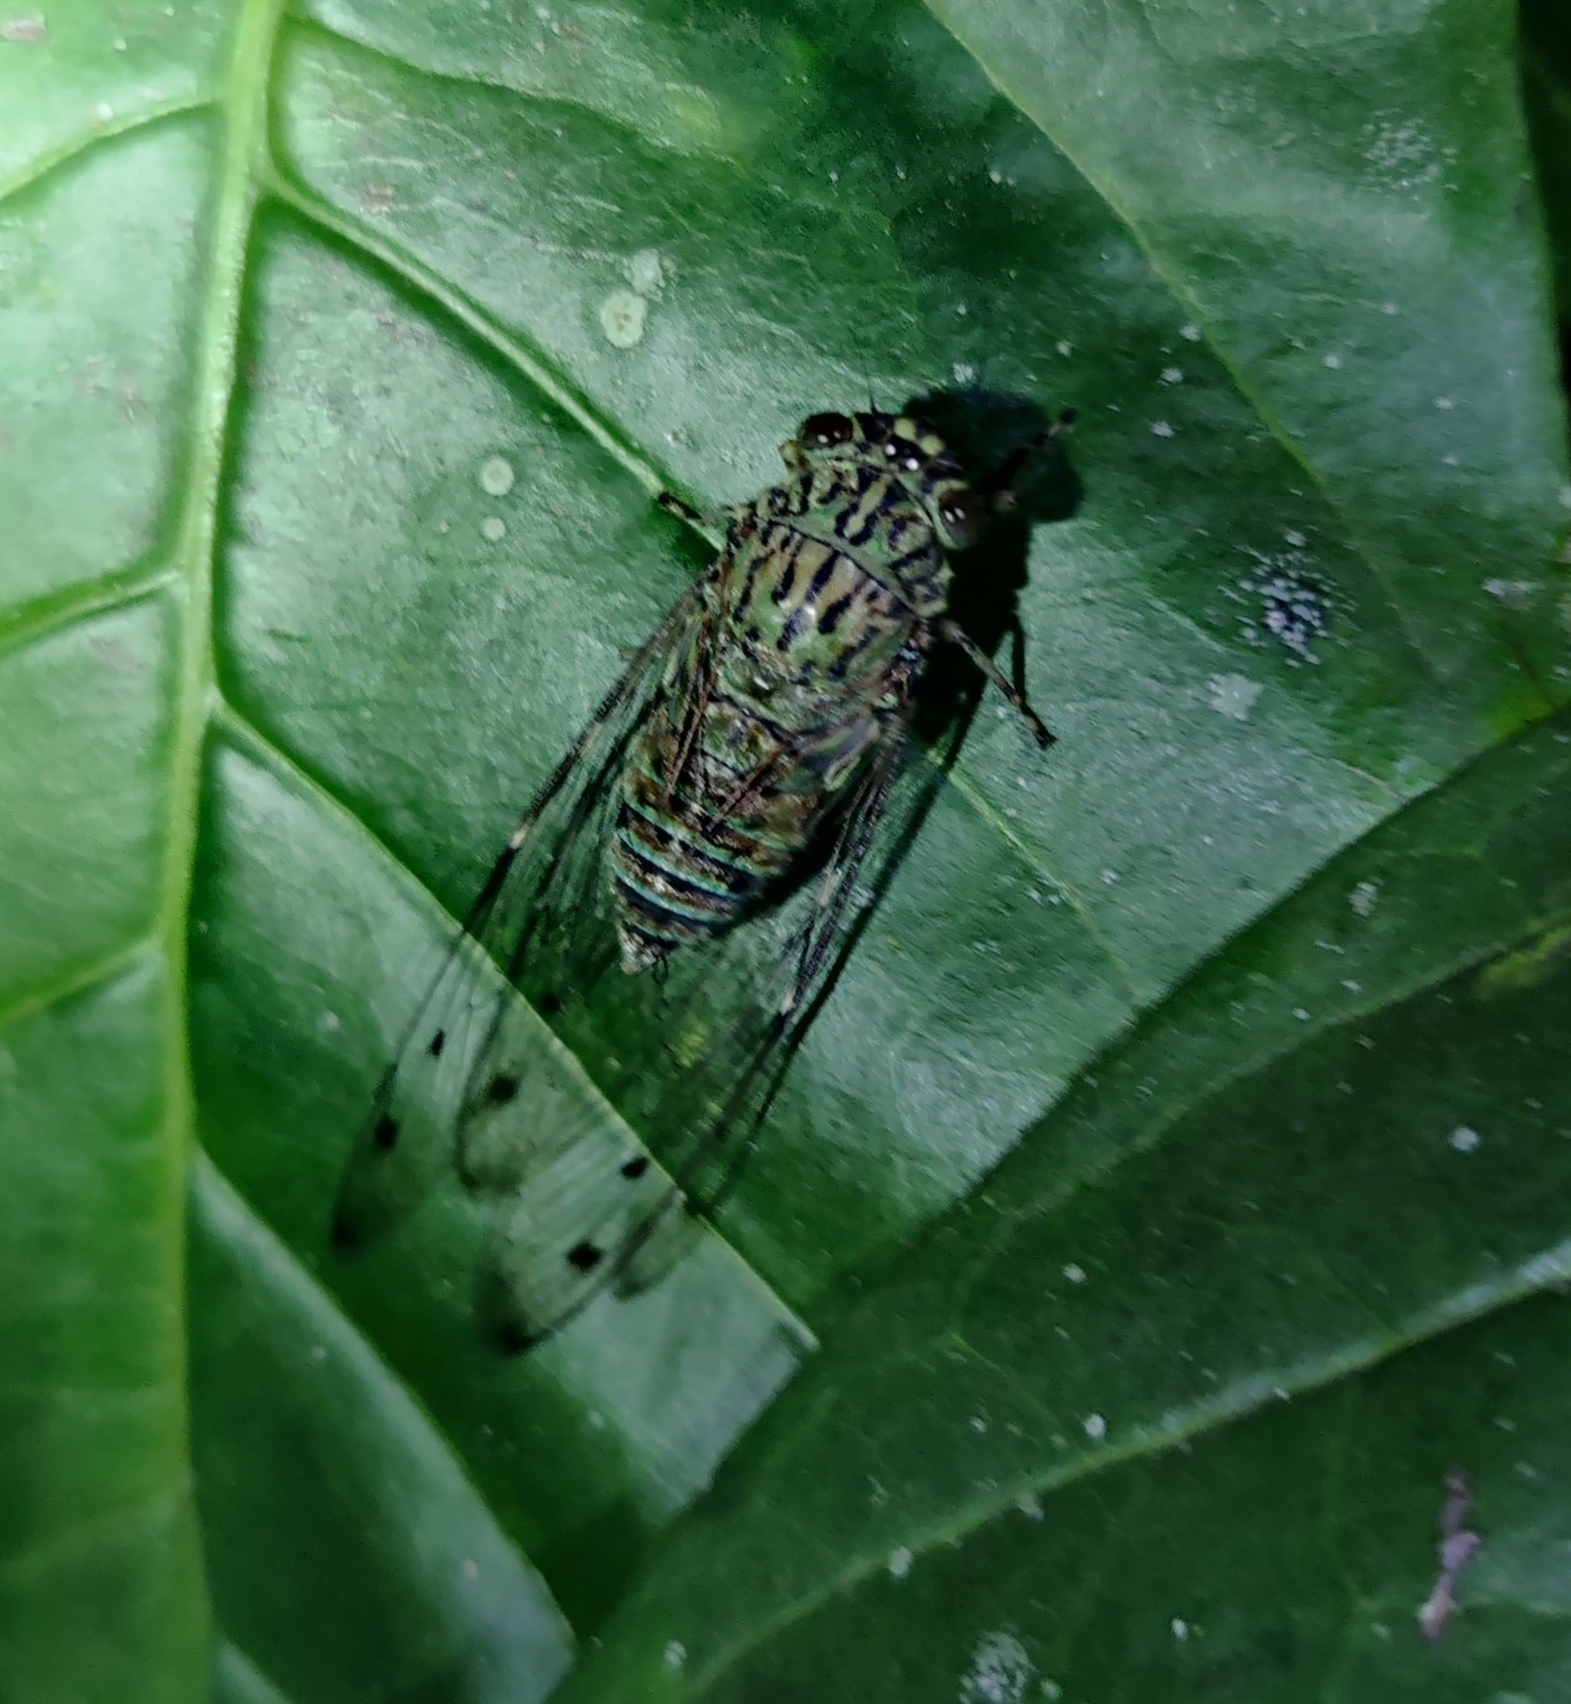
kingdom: Animalia
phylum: Arthropoda
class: Insecta
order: Hemiptera
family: Cicadidae
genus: Haphsa
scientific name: Haphsa sita
